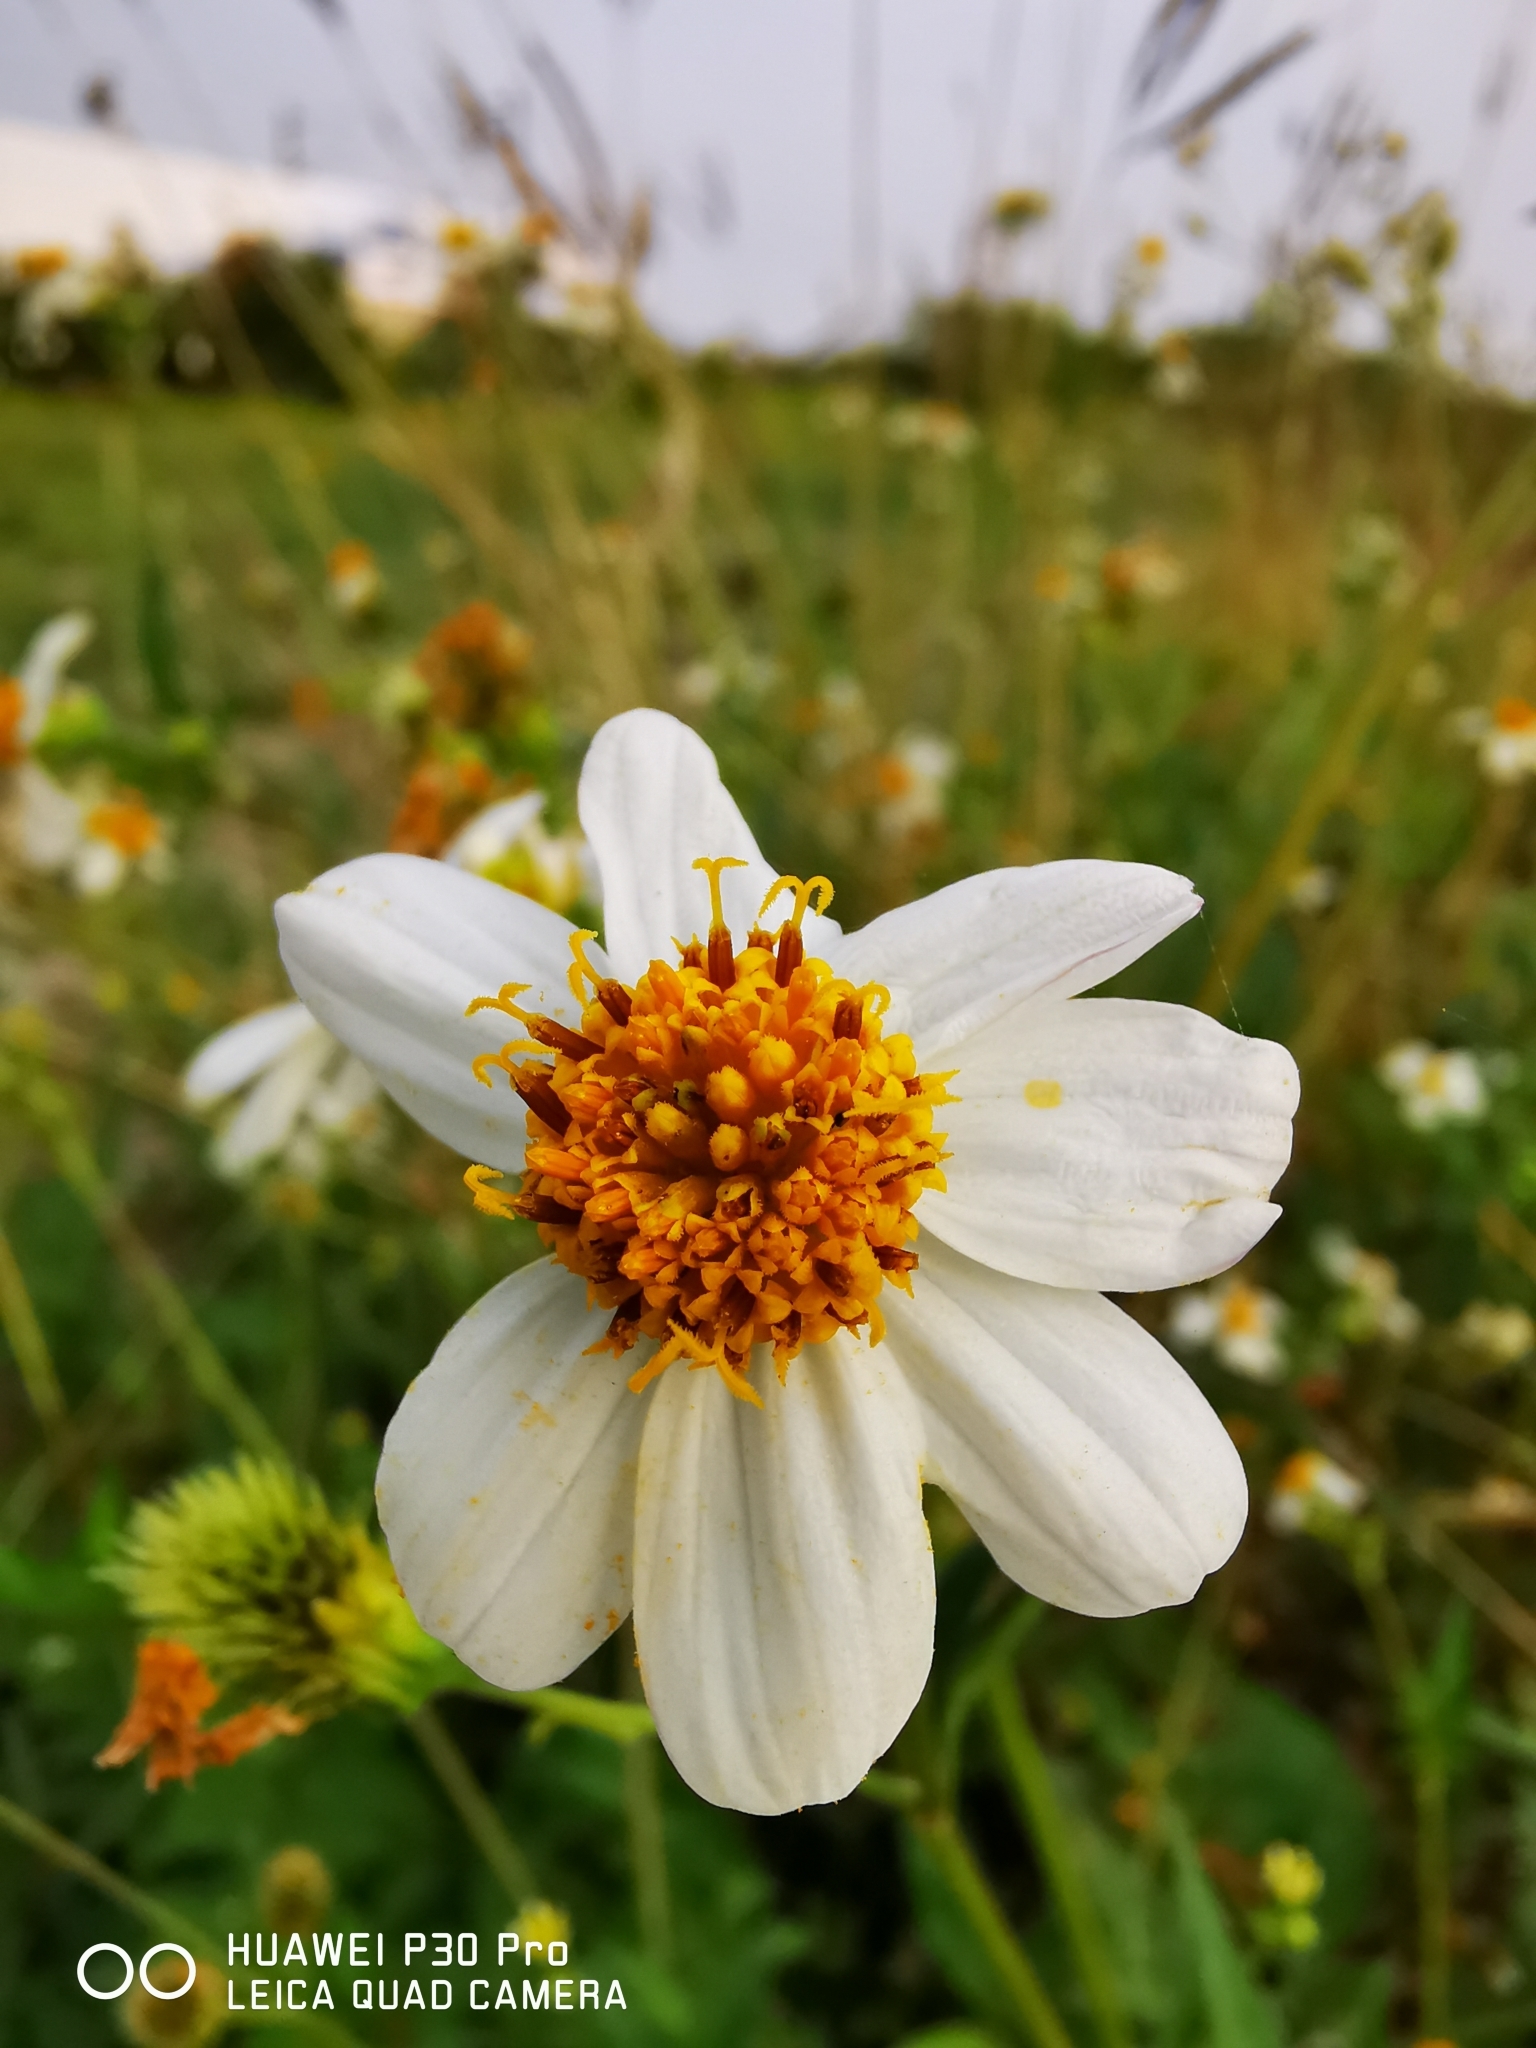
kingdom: Plantae
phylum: Tracheophyta
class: Magnoliopsida
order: Asterales
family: Asteraceae
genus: Bidens
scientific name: Bidens alba
